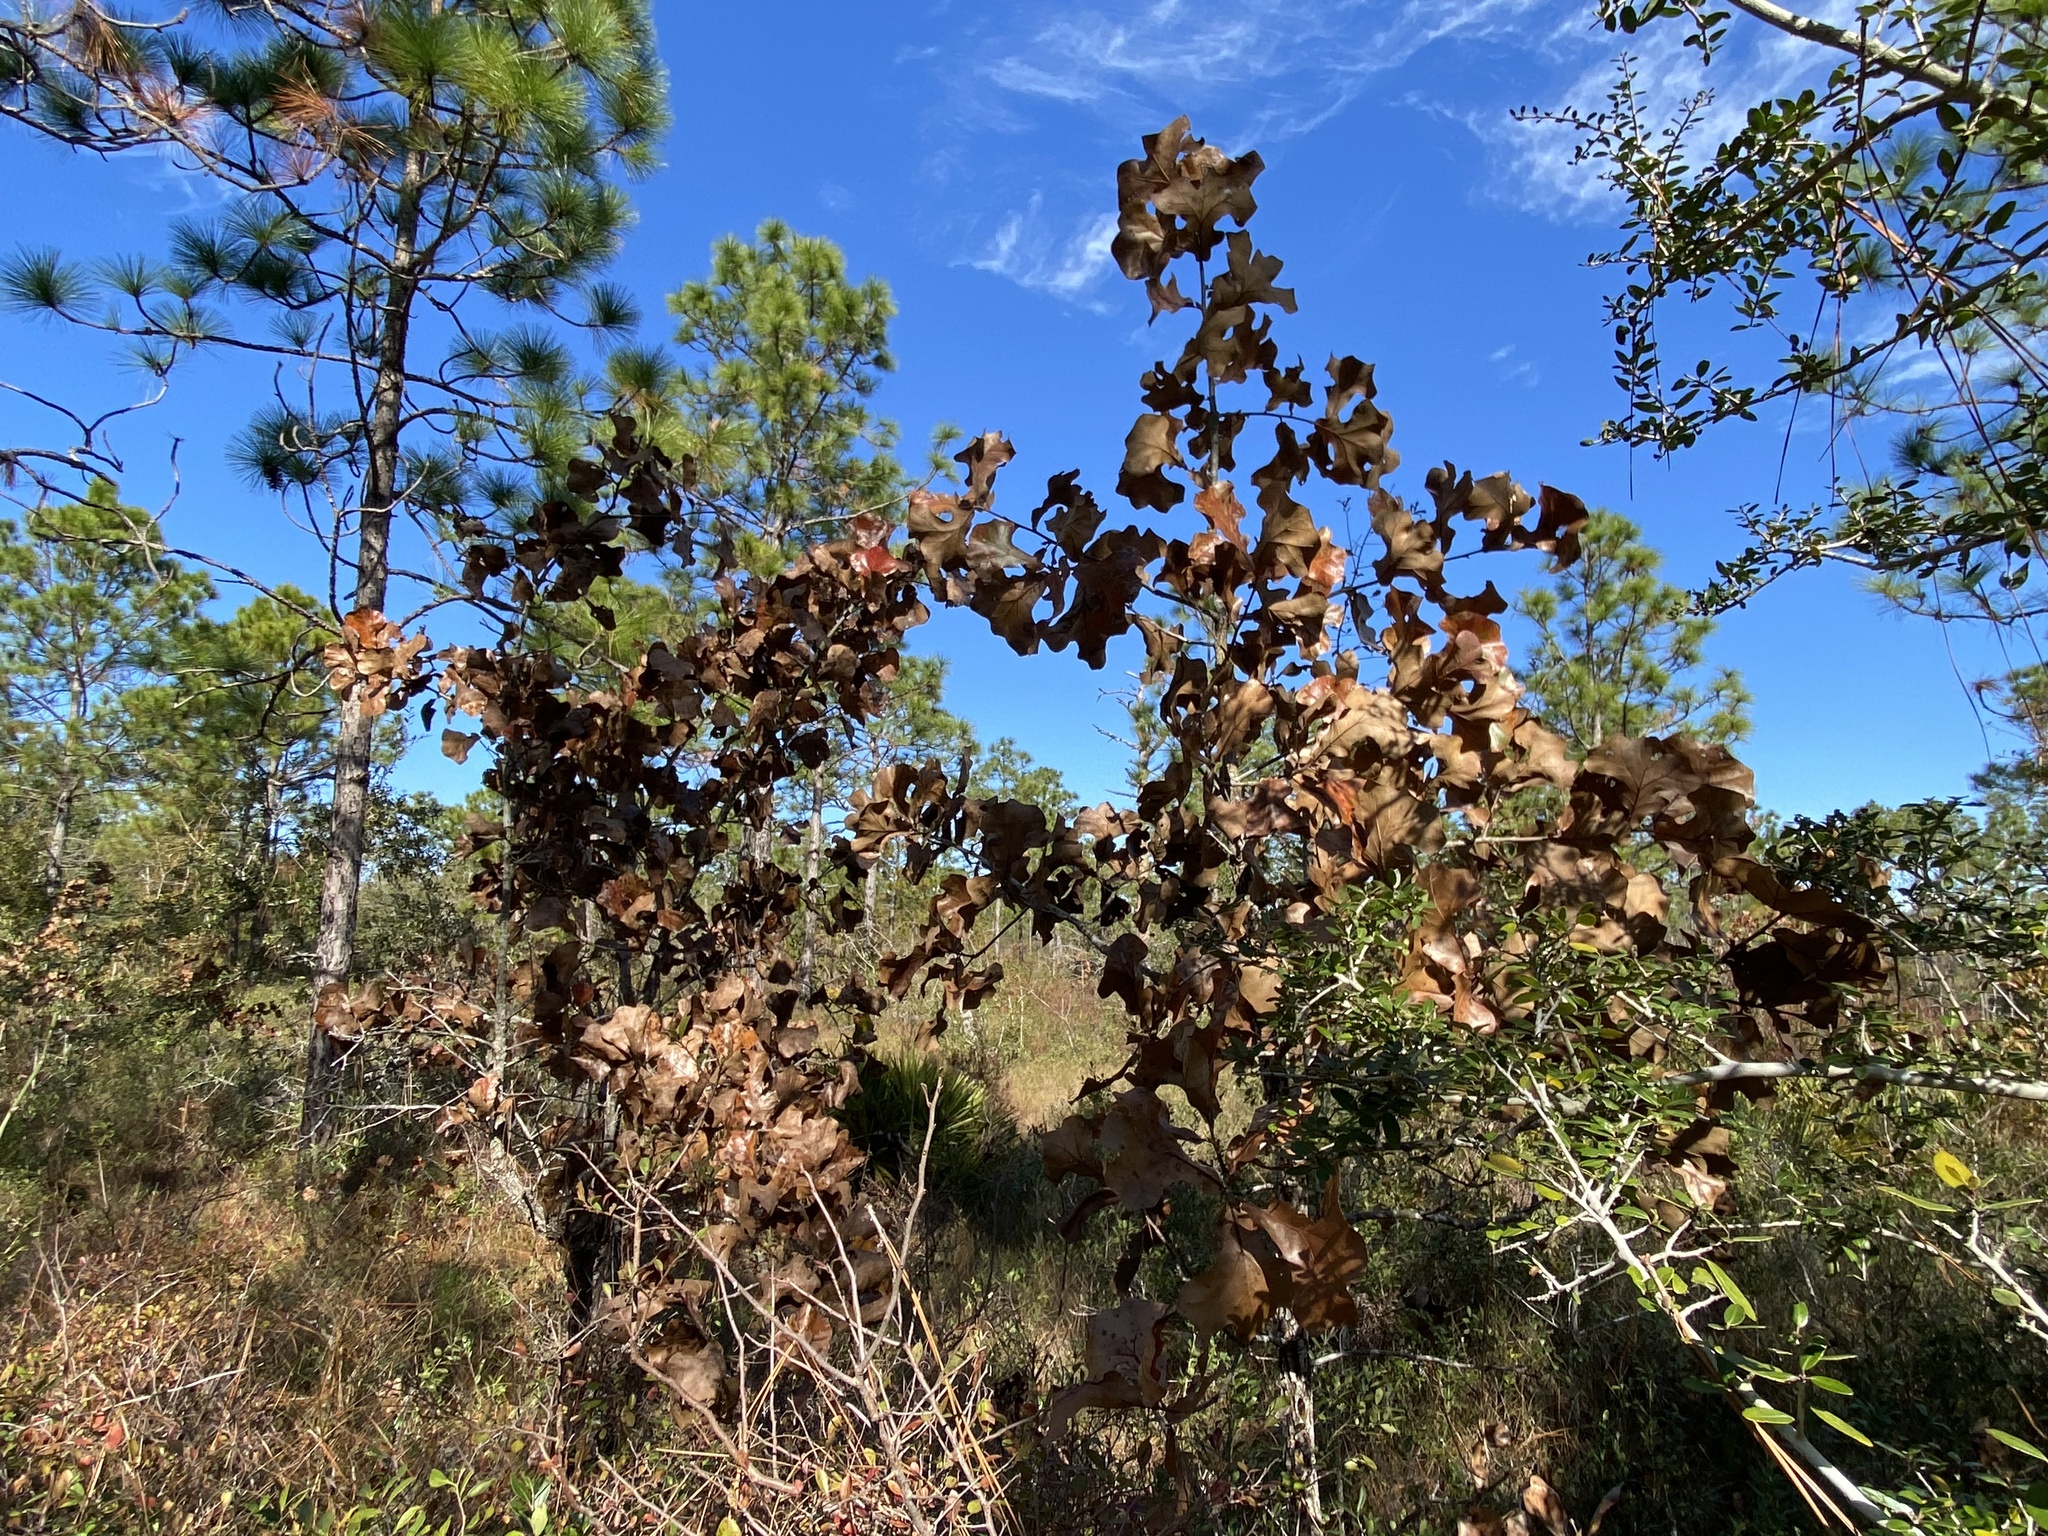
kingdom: Plantae
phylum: Tracheophyta
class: Magnoliopsida
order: Fagales
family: Fagaceae
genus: Quercus
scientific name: Quercus marilandica
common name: Blackjack oak
